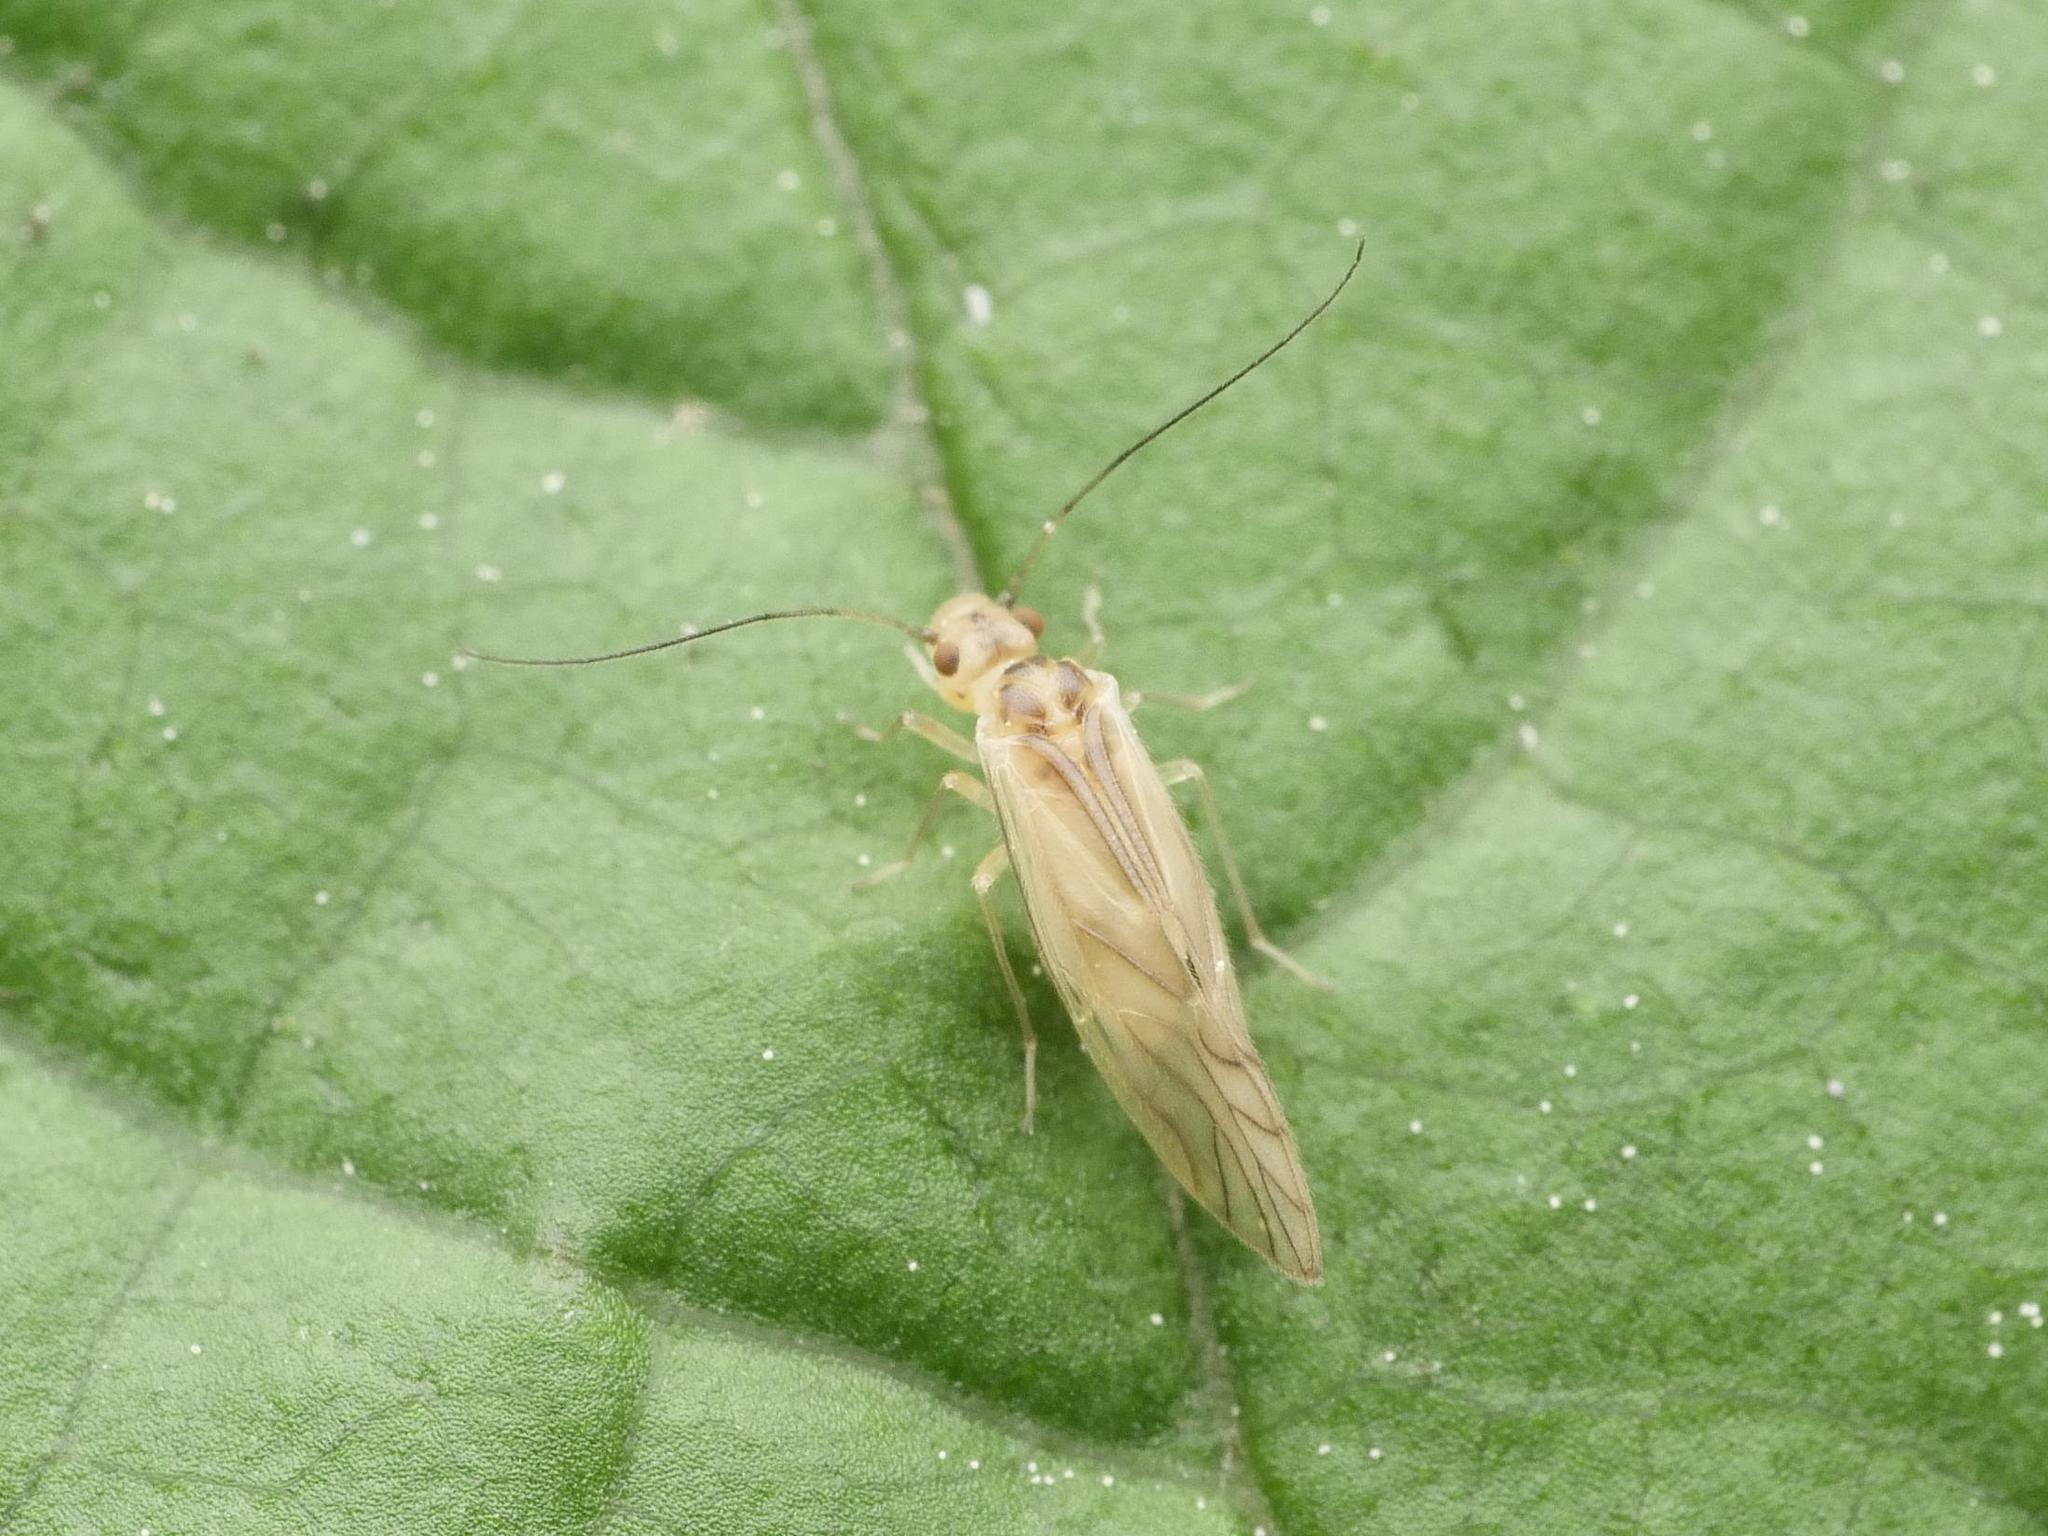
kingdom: Animalia
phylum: Arthropoda
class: Insecta
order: Psocodea
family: Caeciliusidae
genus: Valenzuela
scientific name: Valenzuela flavidus
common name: Yellow barklouse
